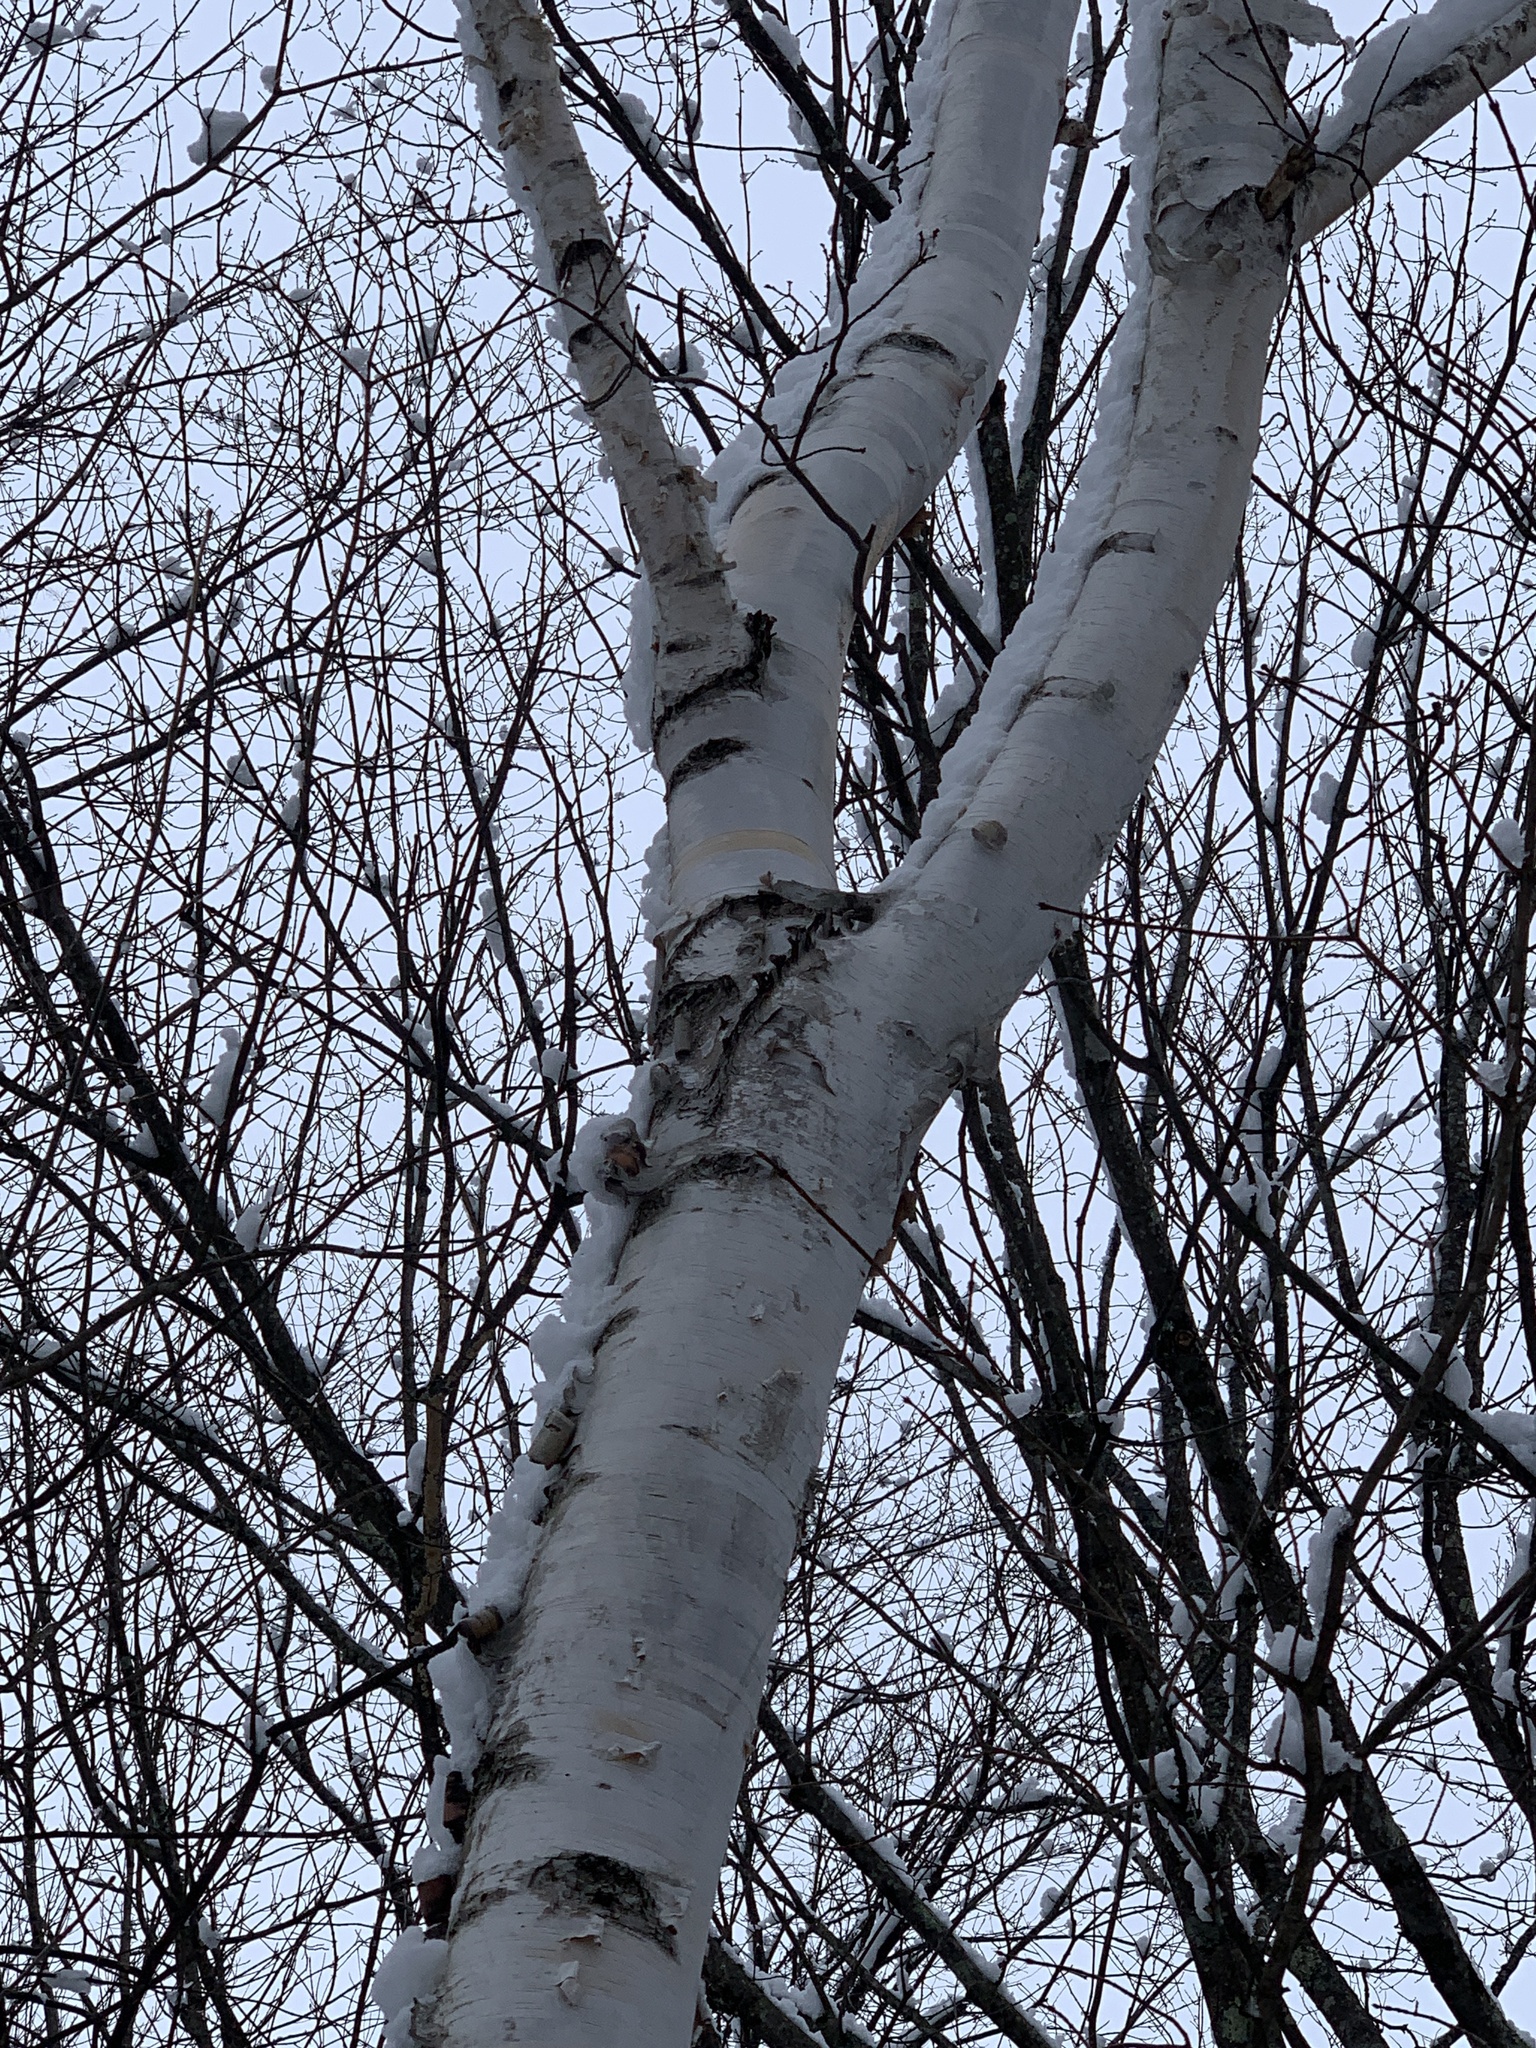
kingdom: Plantae
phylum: Tracheophyta
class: Magnoliopsida
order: Fagales
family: Betulaceae
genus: Betula
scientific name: Betula papyrifera
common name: Paper birch
